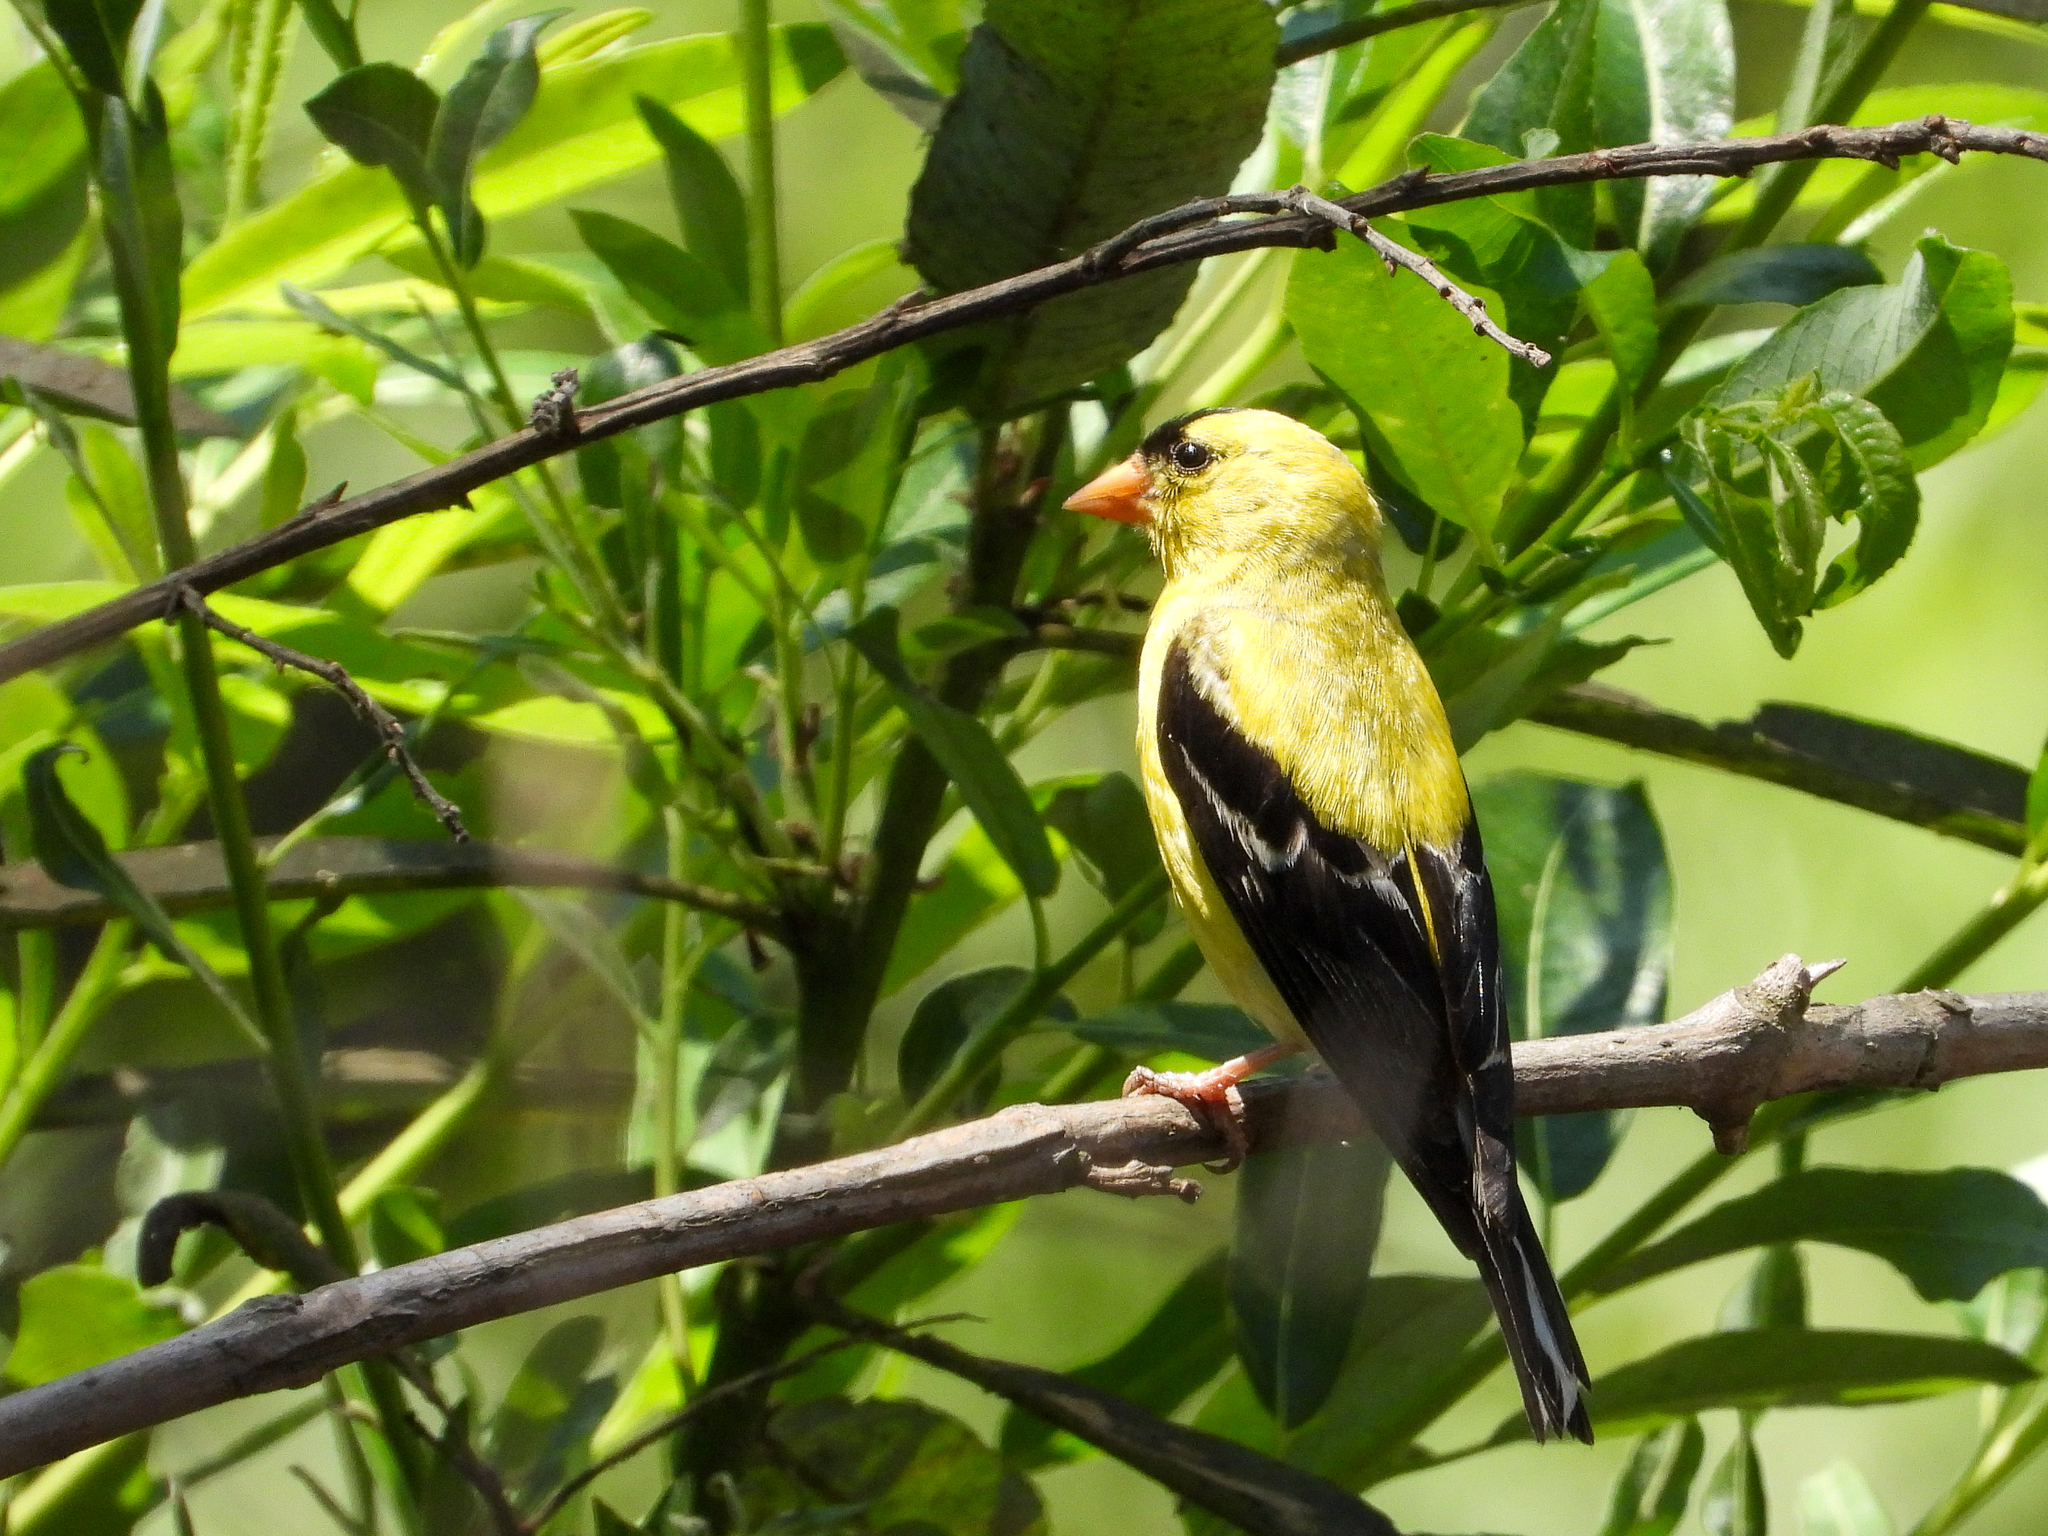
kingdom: Animalia
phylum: Chordata
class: Aves
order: Passeriformes
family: Fringillidae
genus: Spinus
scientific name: Spinus tristis
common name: American goldfinch
